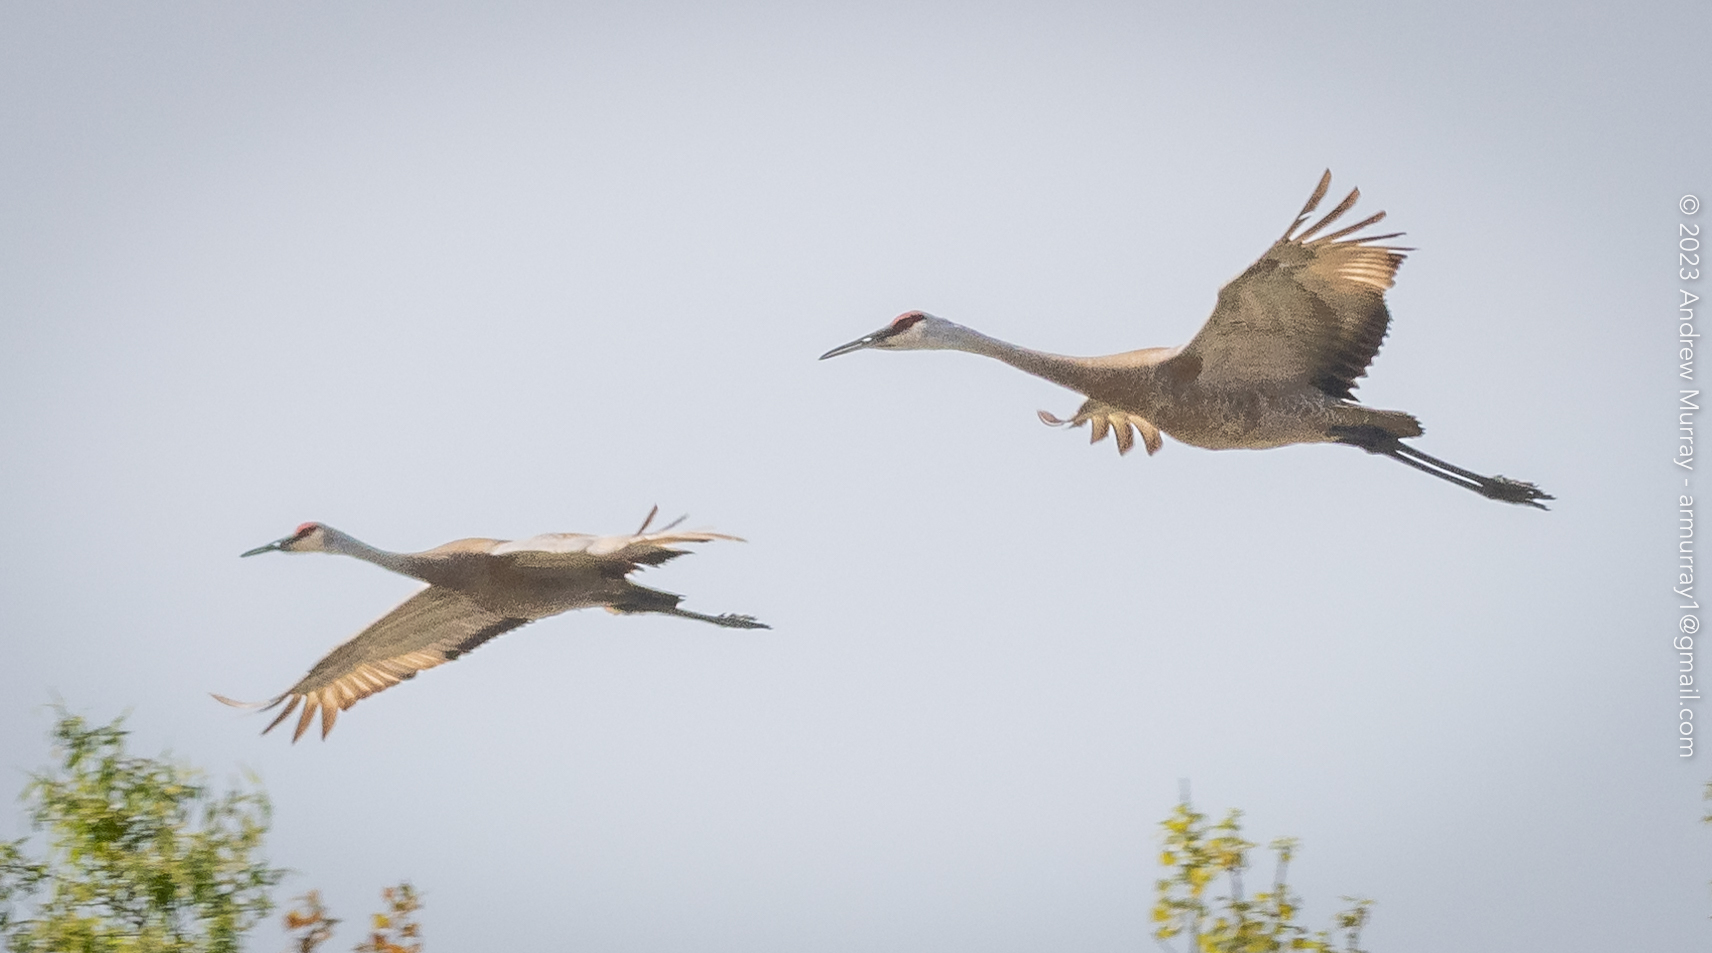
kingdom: Animalia
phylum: Chordata
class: Aves
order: Gruiformes
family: Gruidae
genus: Grus
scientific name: Grus canadensis
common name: Sandhill crane
